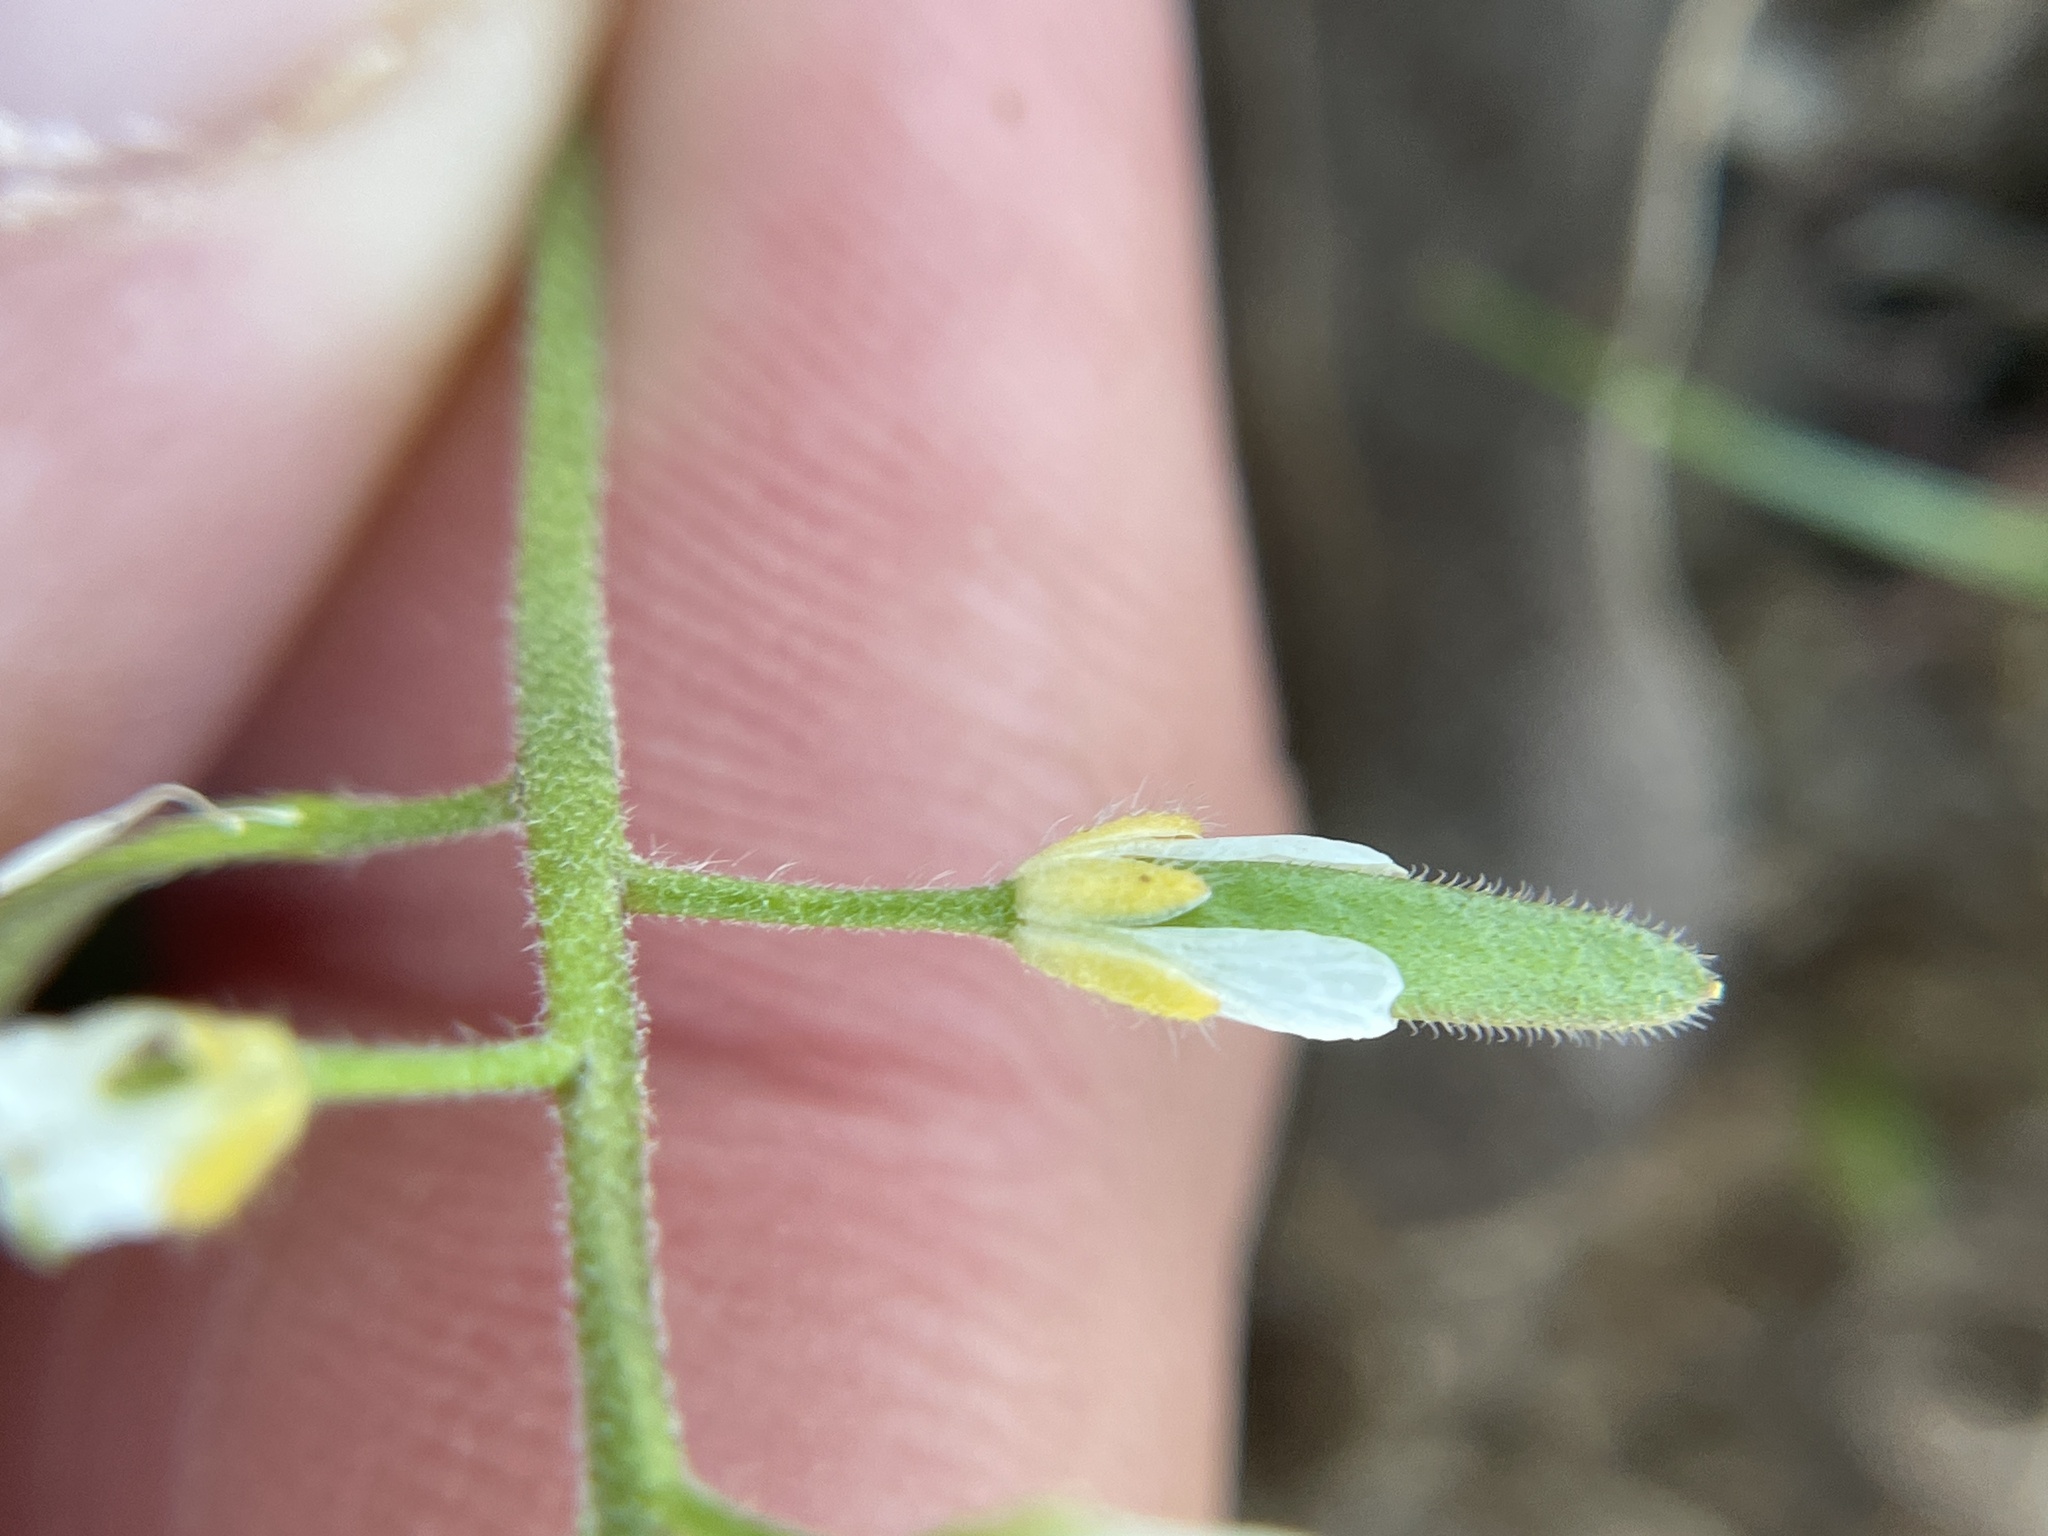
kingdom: Plantae
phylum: Tracheophyta
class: Magnoliopsida
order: Brassicales
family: Brassicaceae
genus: Tomostima
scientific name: Tomostima cuneifolia
